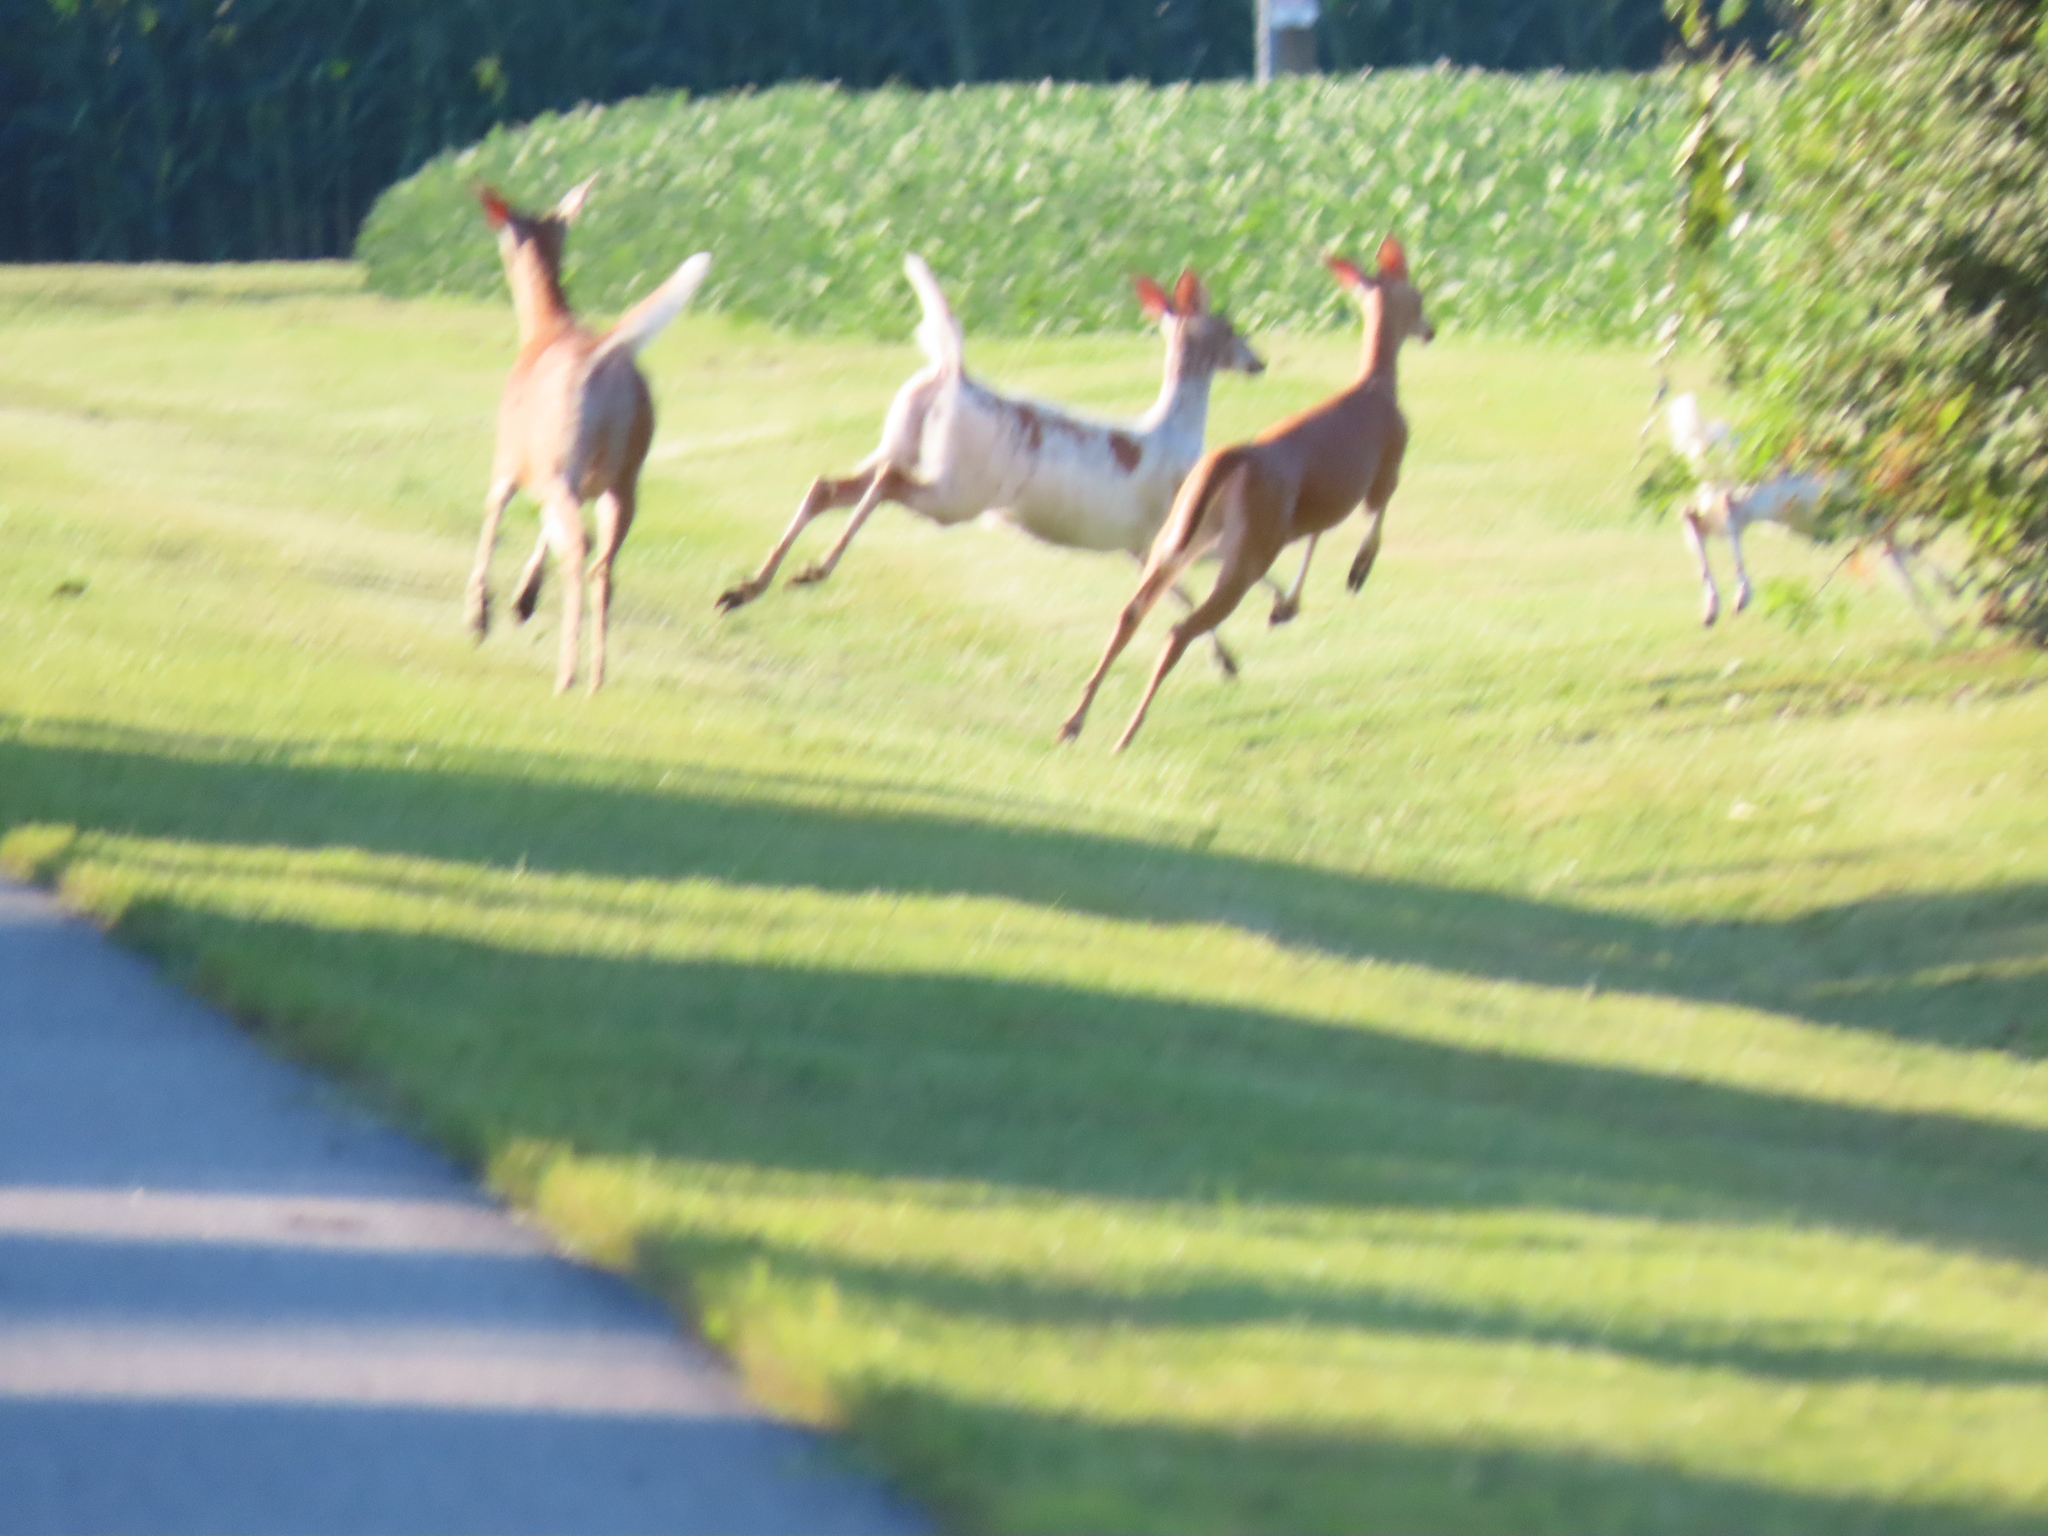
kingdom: Animalia
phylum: Chordata
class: Mammalia
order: Artiodactyla
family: Cervidae
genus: Odocoileus
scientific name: Odocoileus virginianus
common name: White-tailed deer
